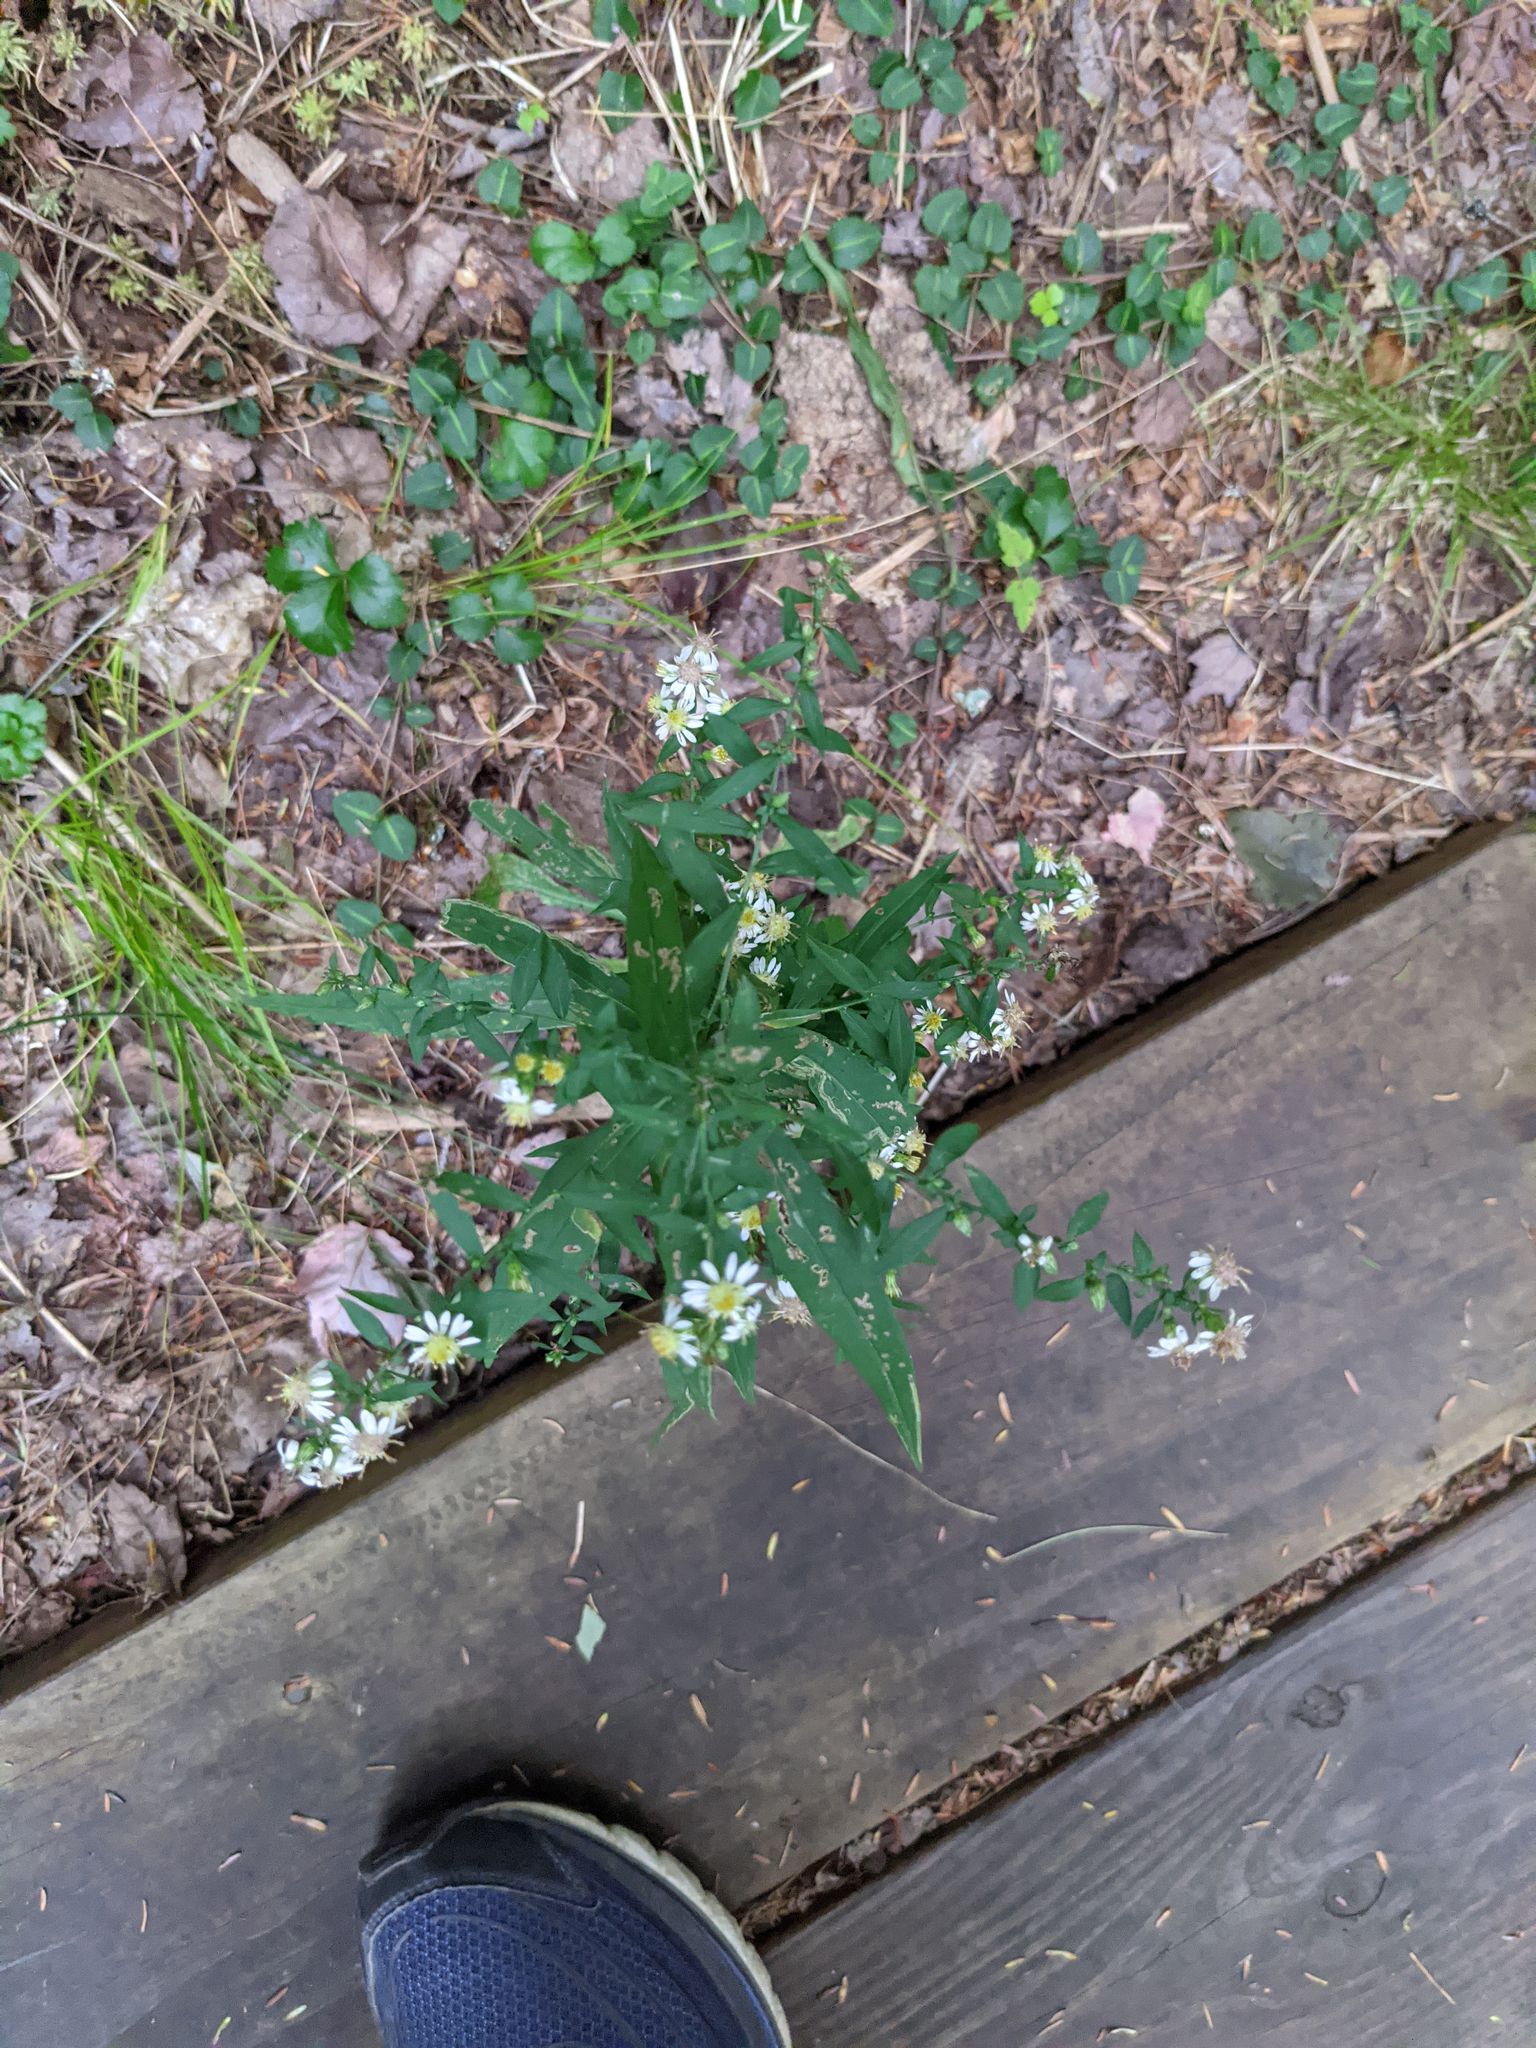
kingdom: Plantae
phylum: Tracheophyta
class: Magnoliopsida
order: Asterales
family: Asteraceae
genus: Symphyotrichum
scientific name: Symphyotrichum lateriflorum
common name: Calico aster
